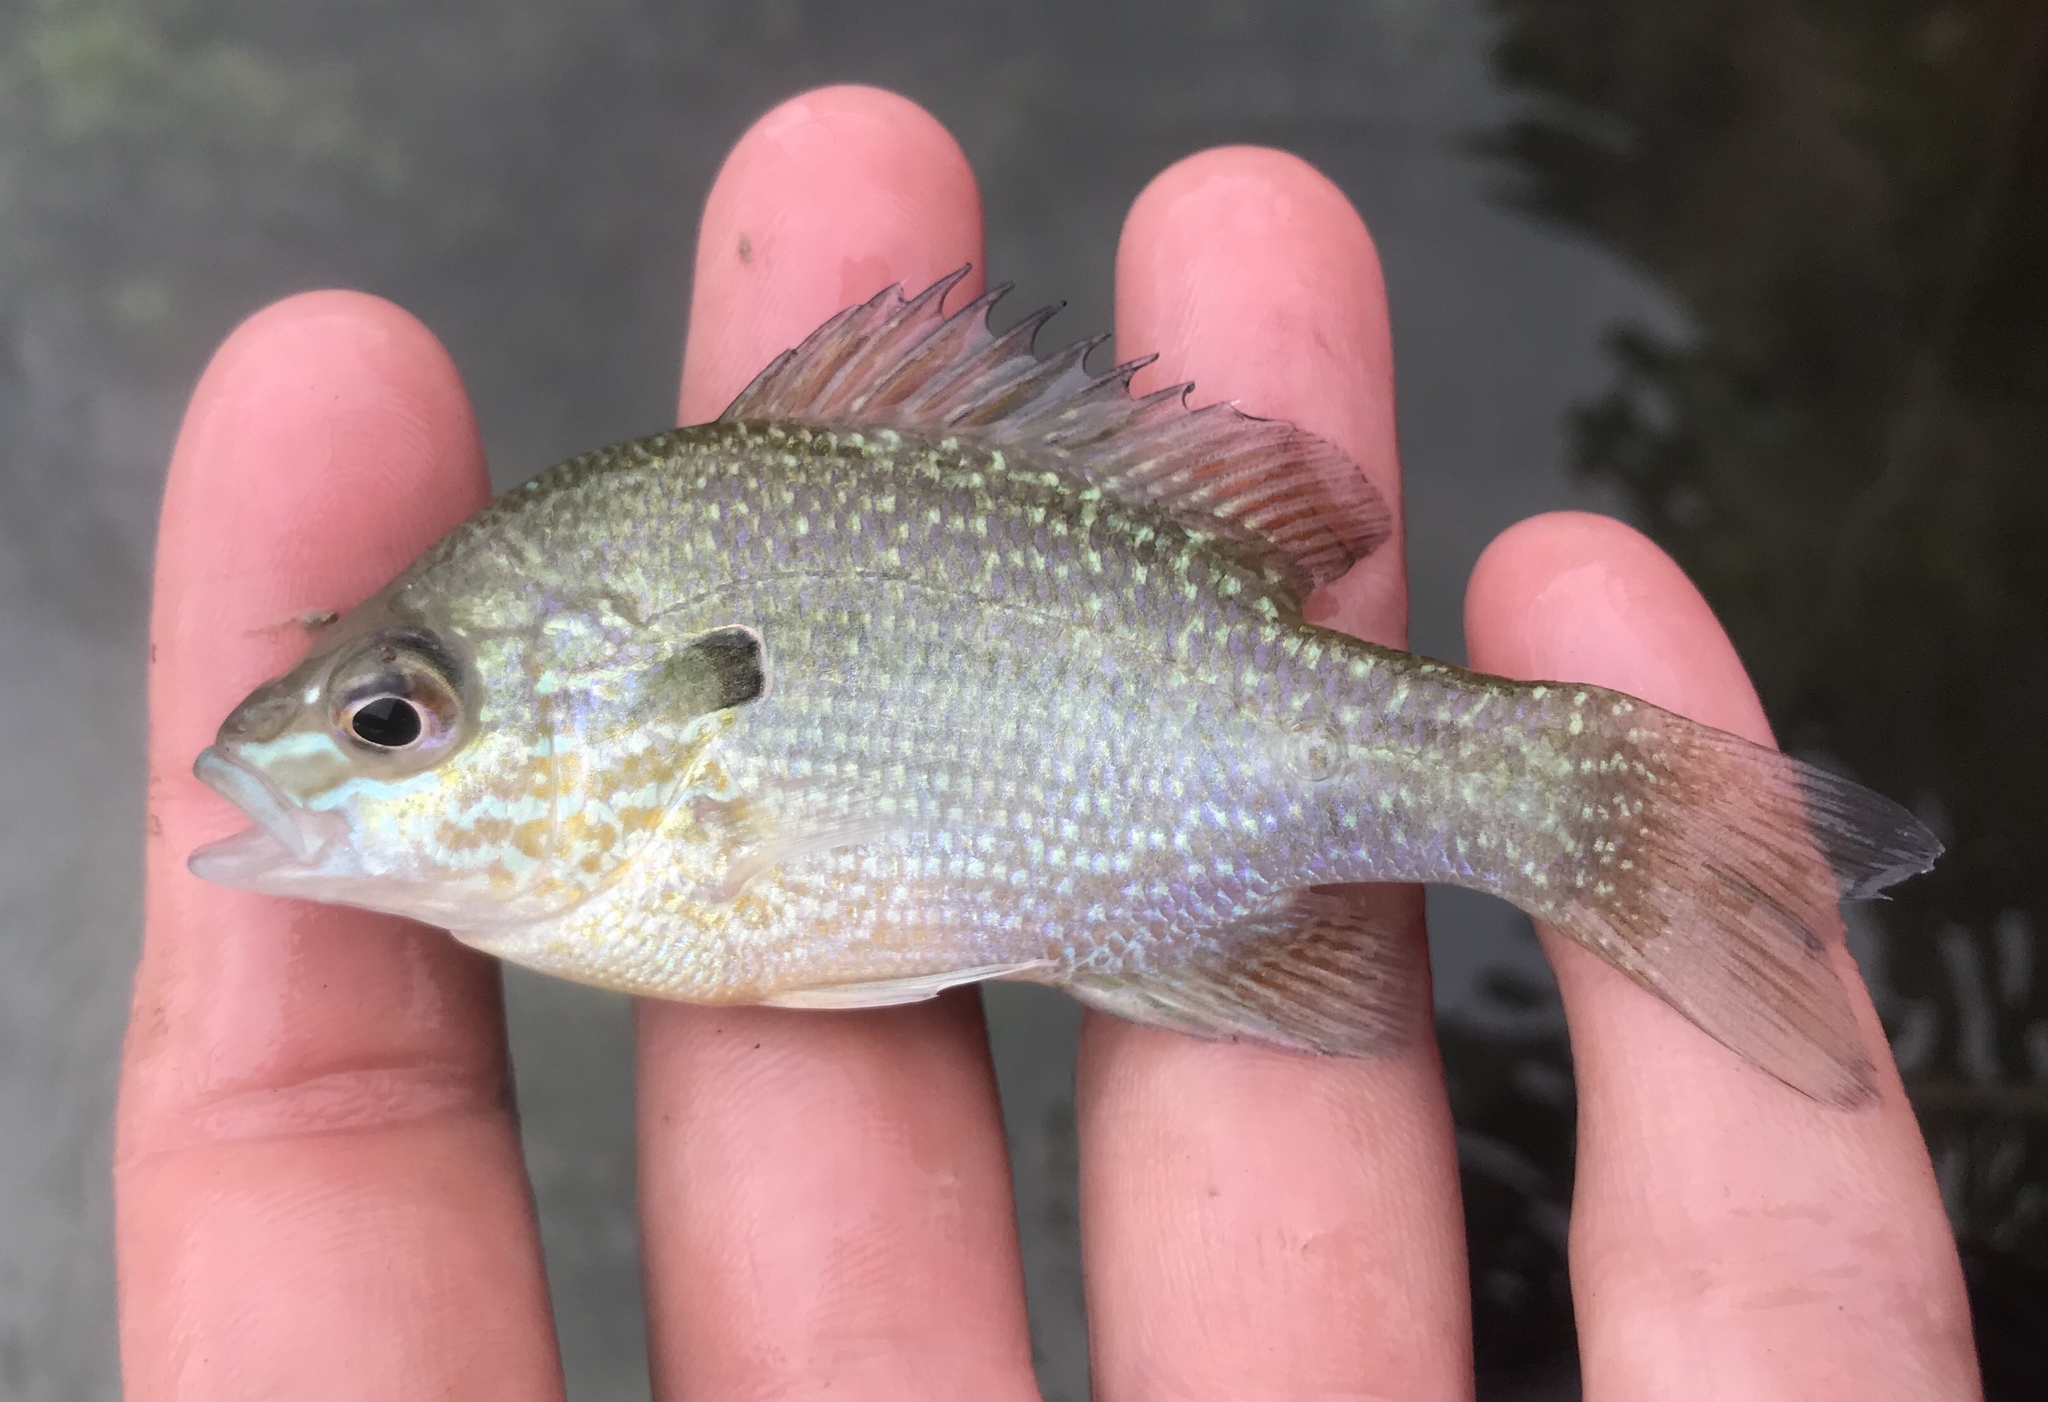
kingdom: Animalia
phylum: Chordata
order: Perciformes
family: Centrarchidae
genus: Lepomis
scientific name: Lepomis megalotis
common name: Longear sunfish
